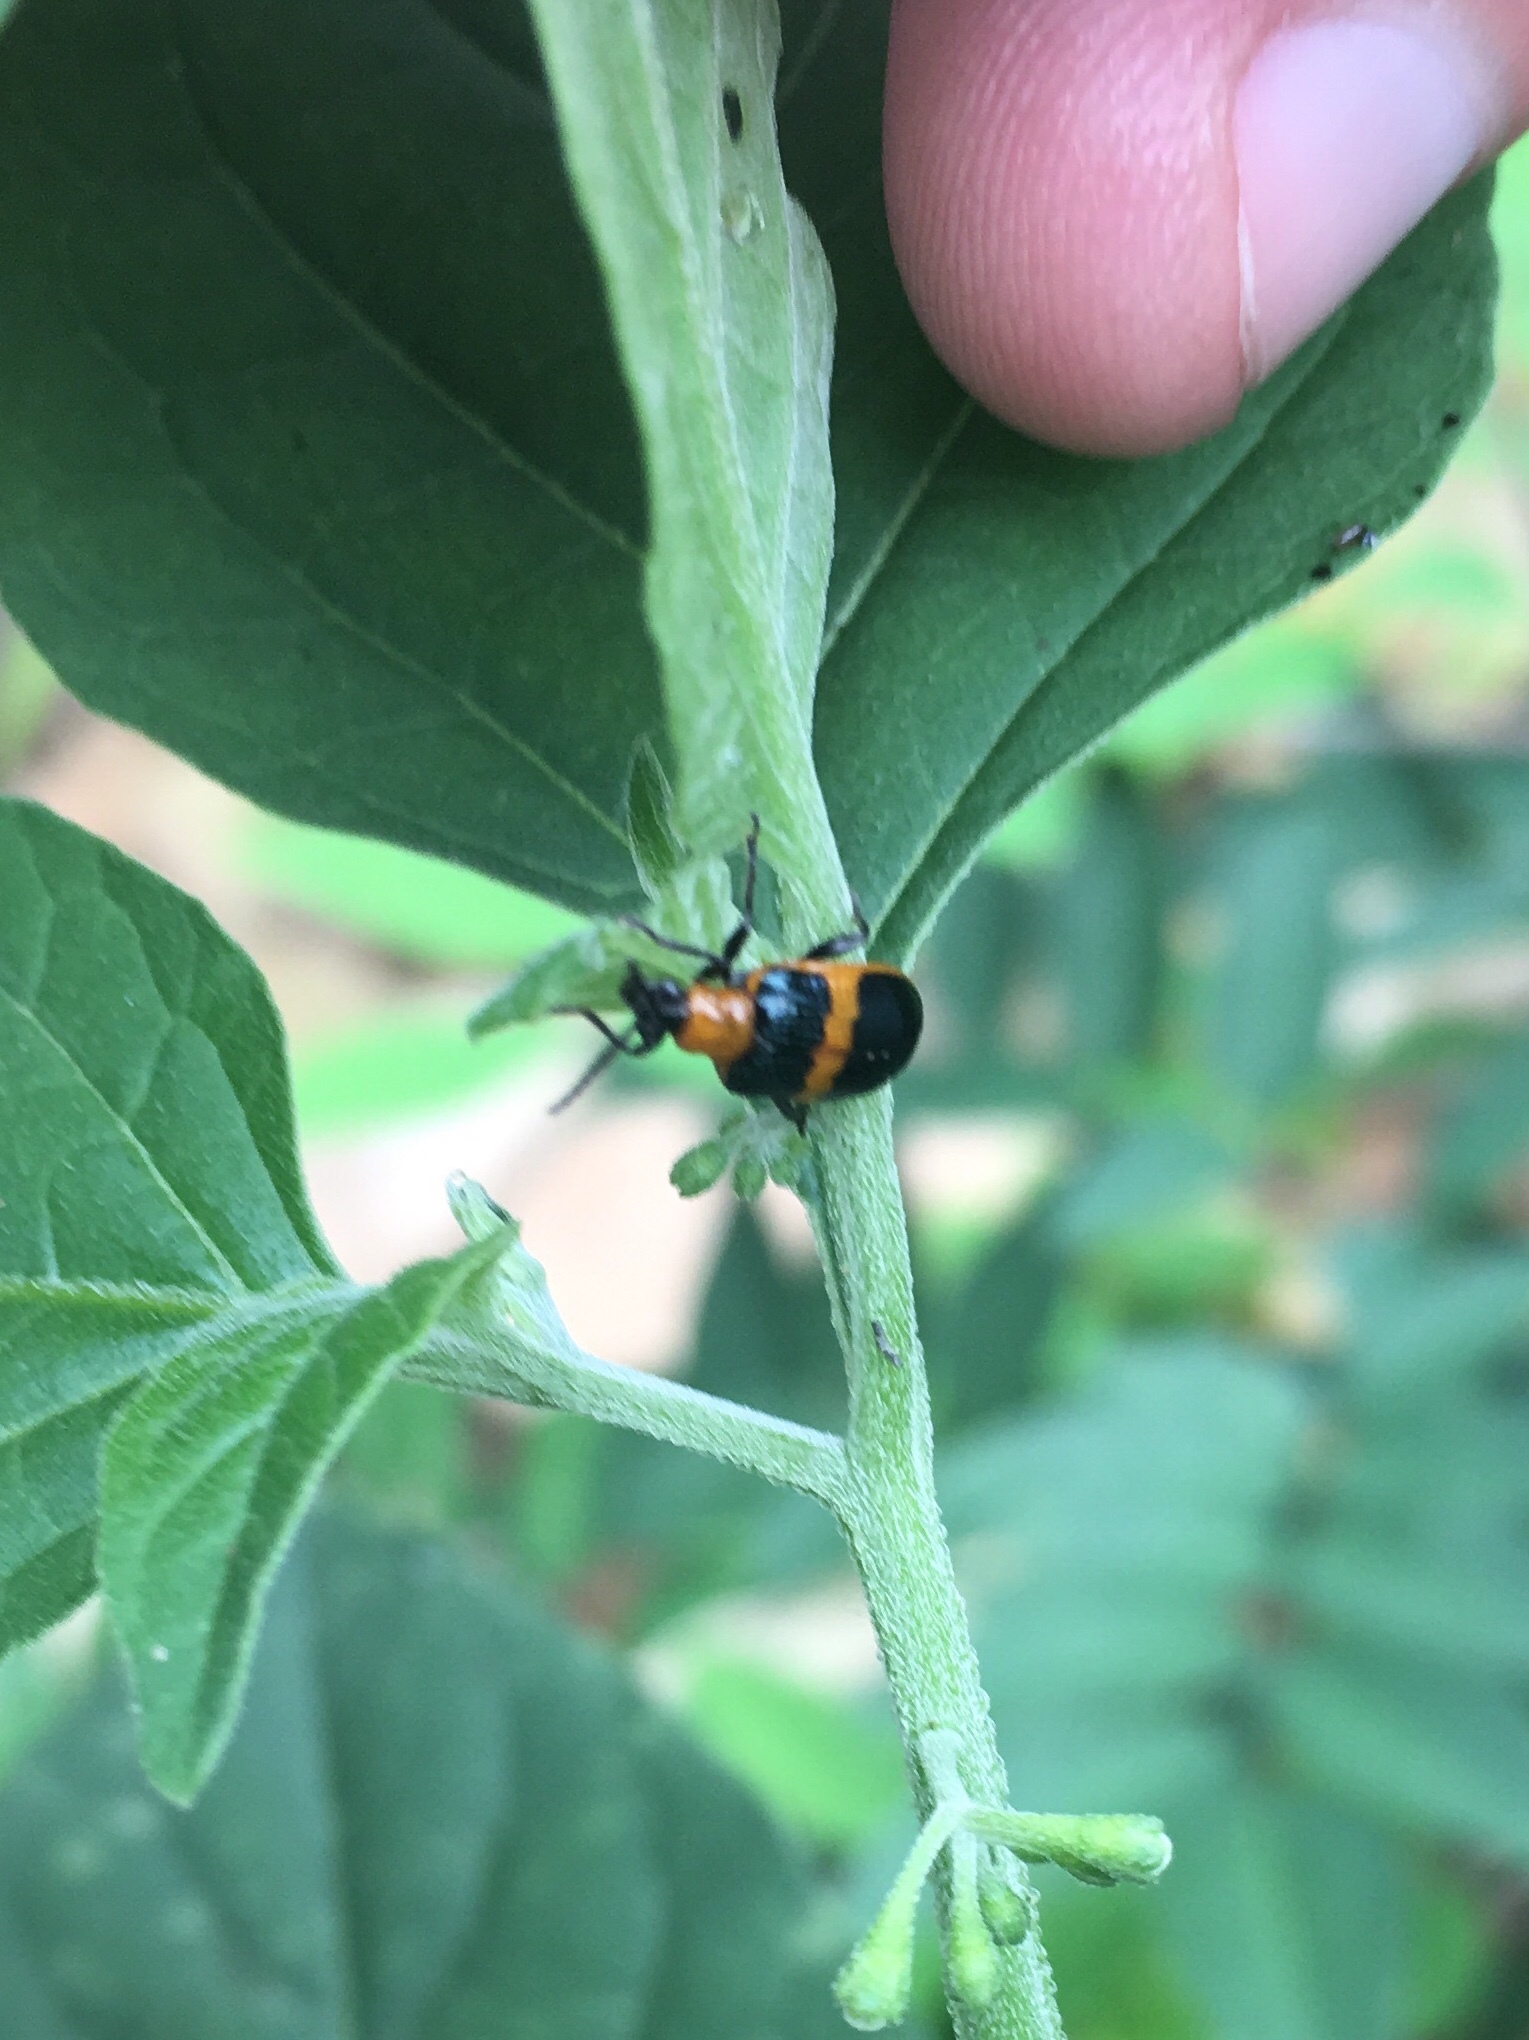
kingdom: Animalia
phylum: Arthropoda
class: Insecta
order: Coleoptera
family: Chrysomelidae
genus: Lema
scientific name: Lema solani
